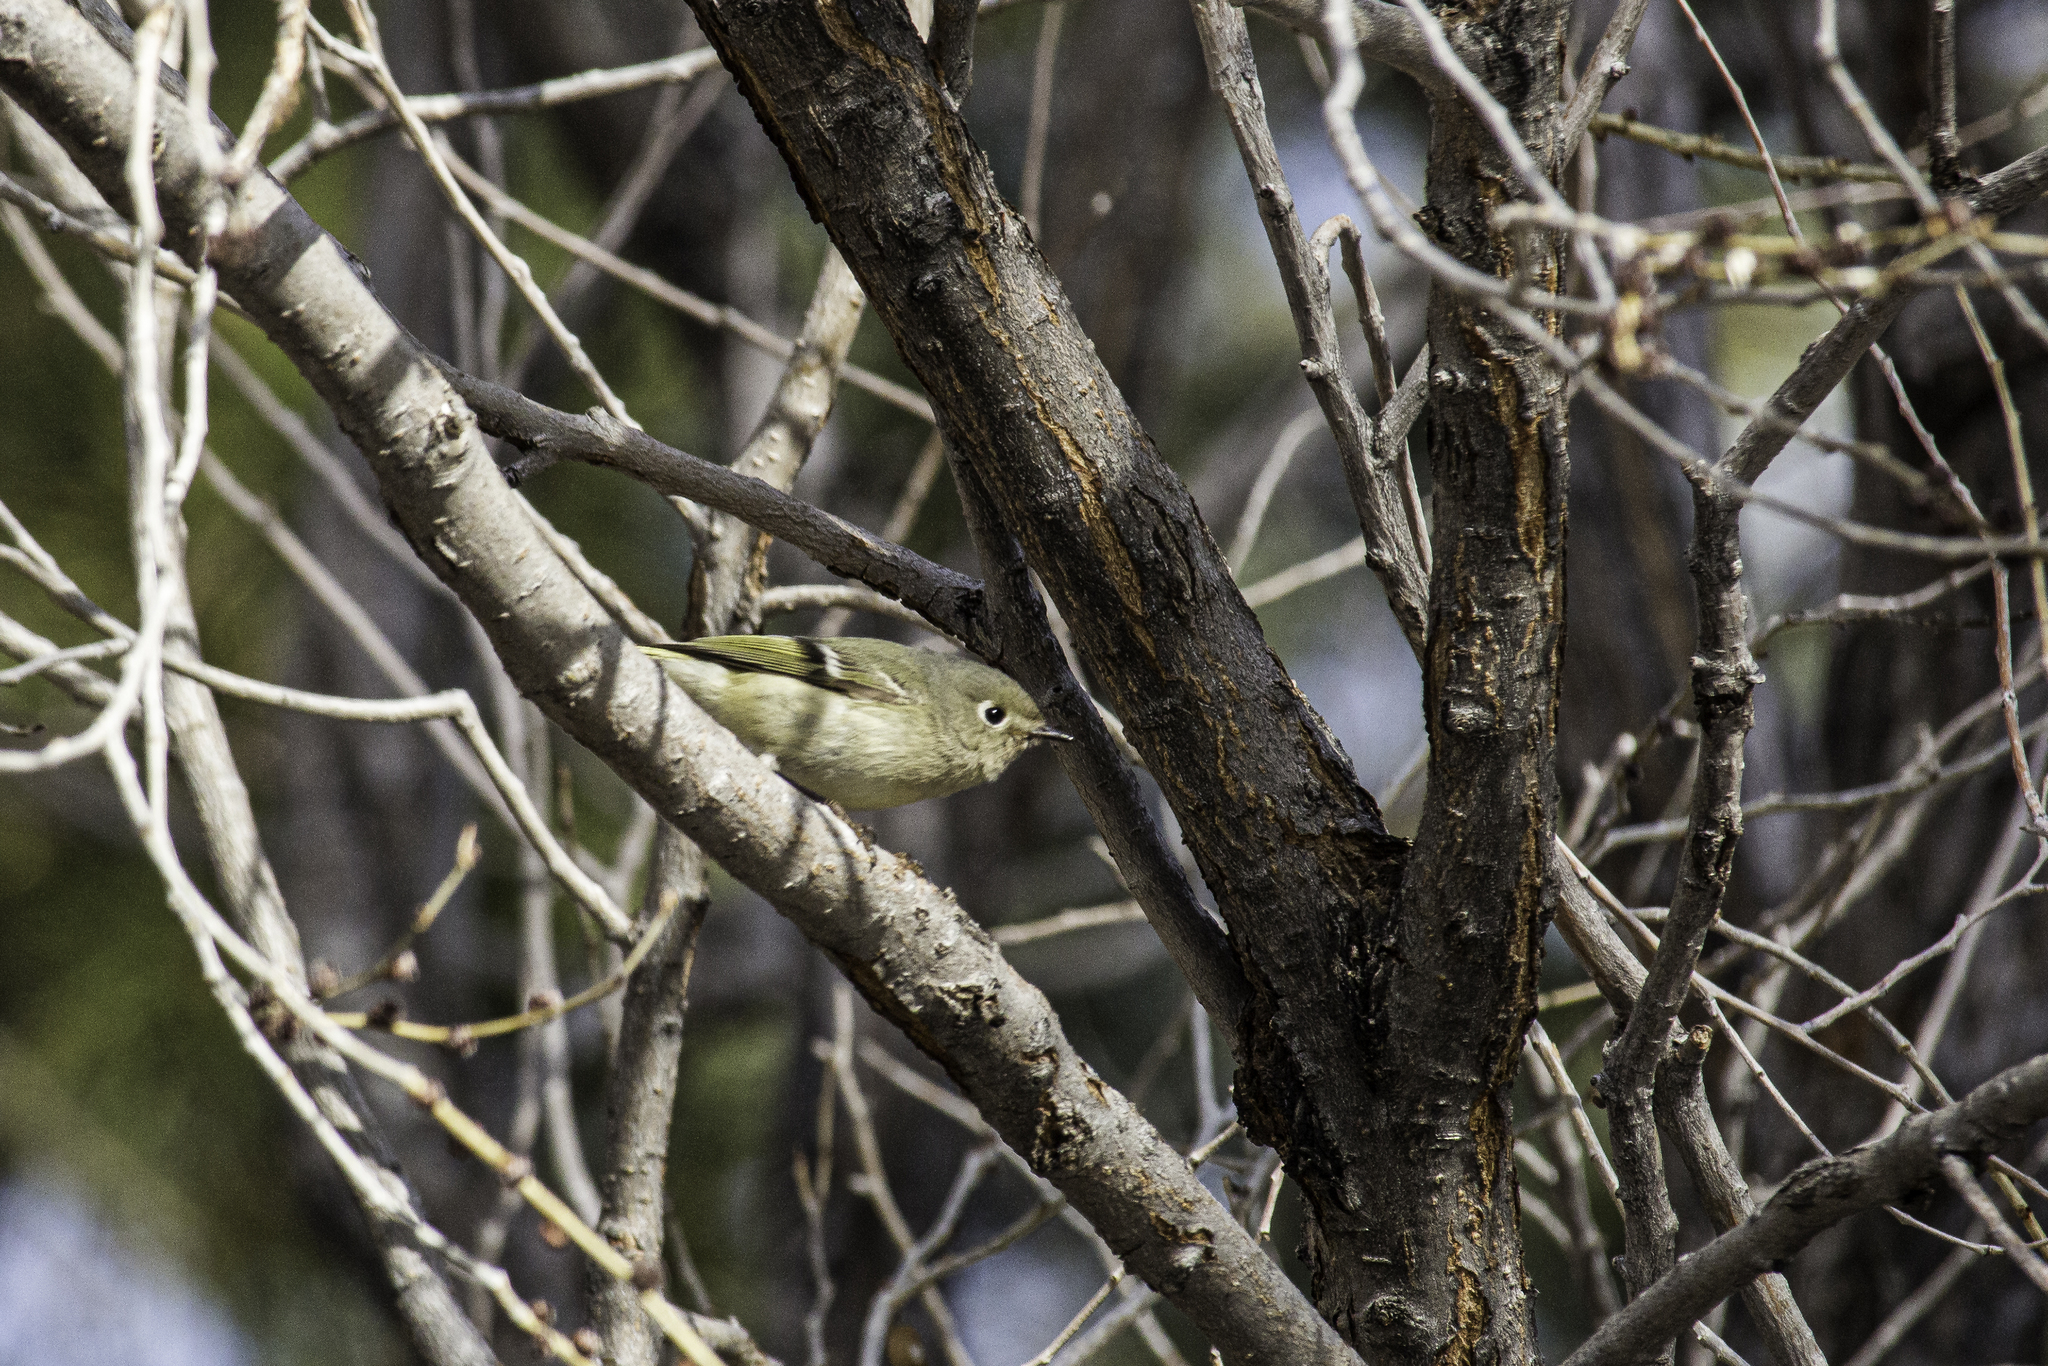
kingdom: Animalia
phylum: Chordata
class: Aves
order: Passeriformes
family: Regulidae
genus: Regulus
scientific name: Regulus calendula
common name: Ruby-crowned kinglet
